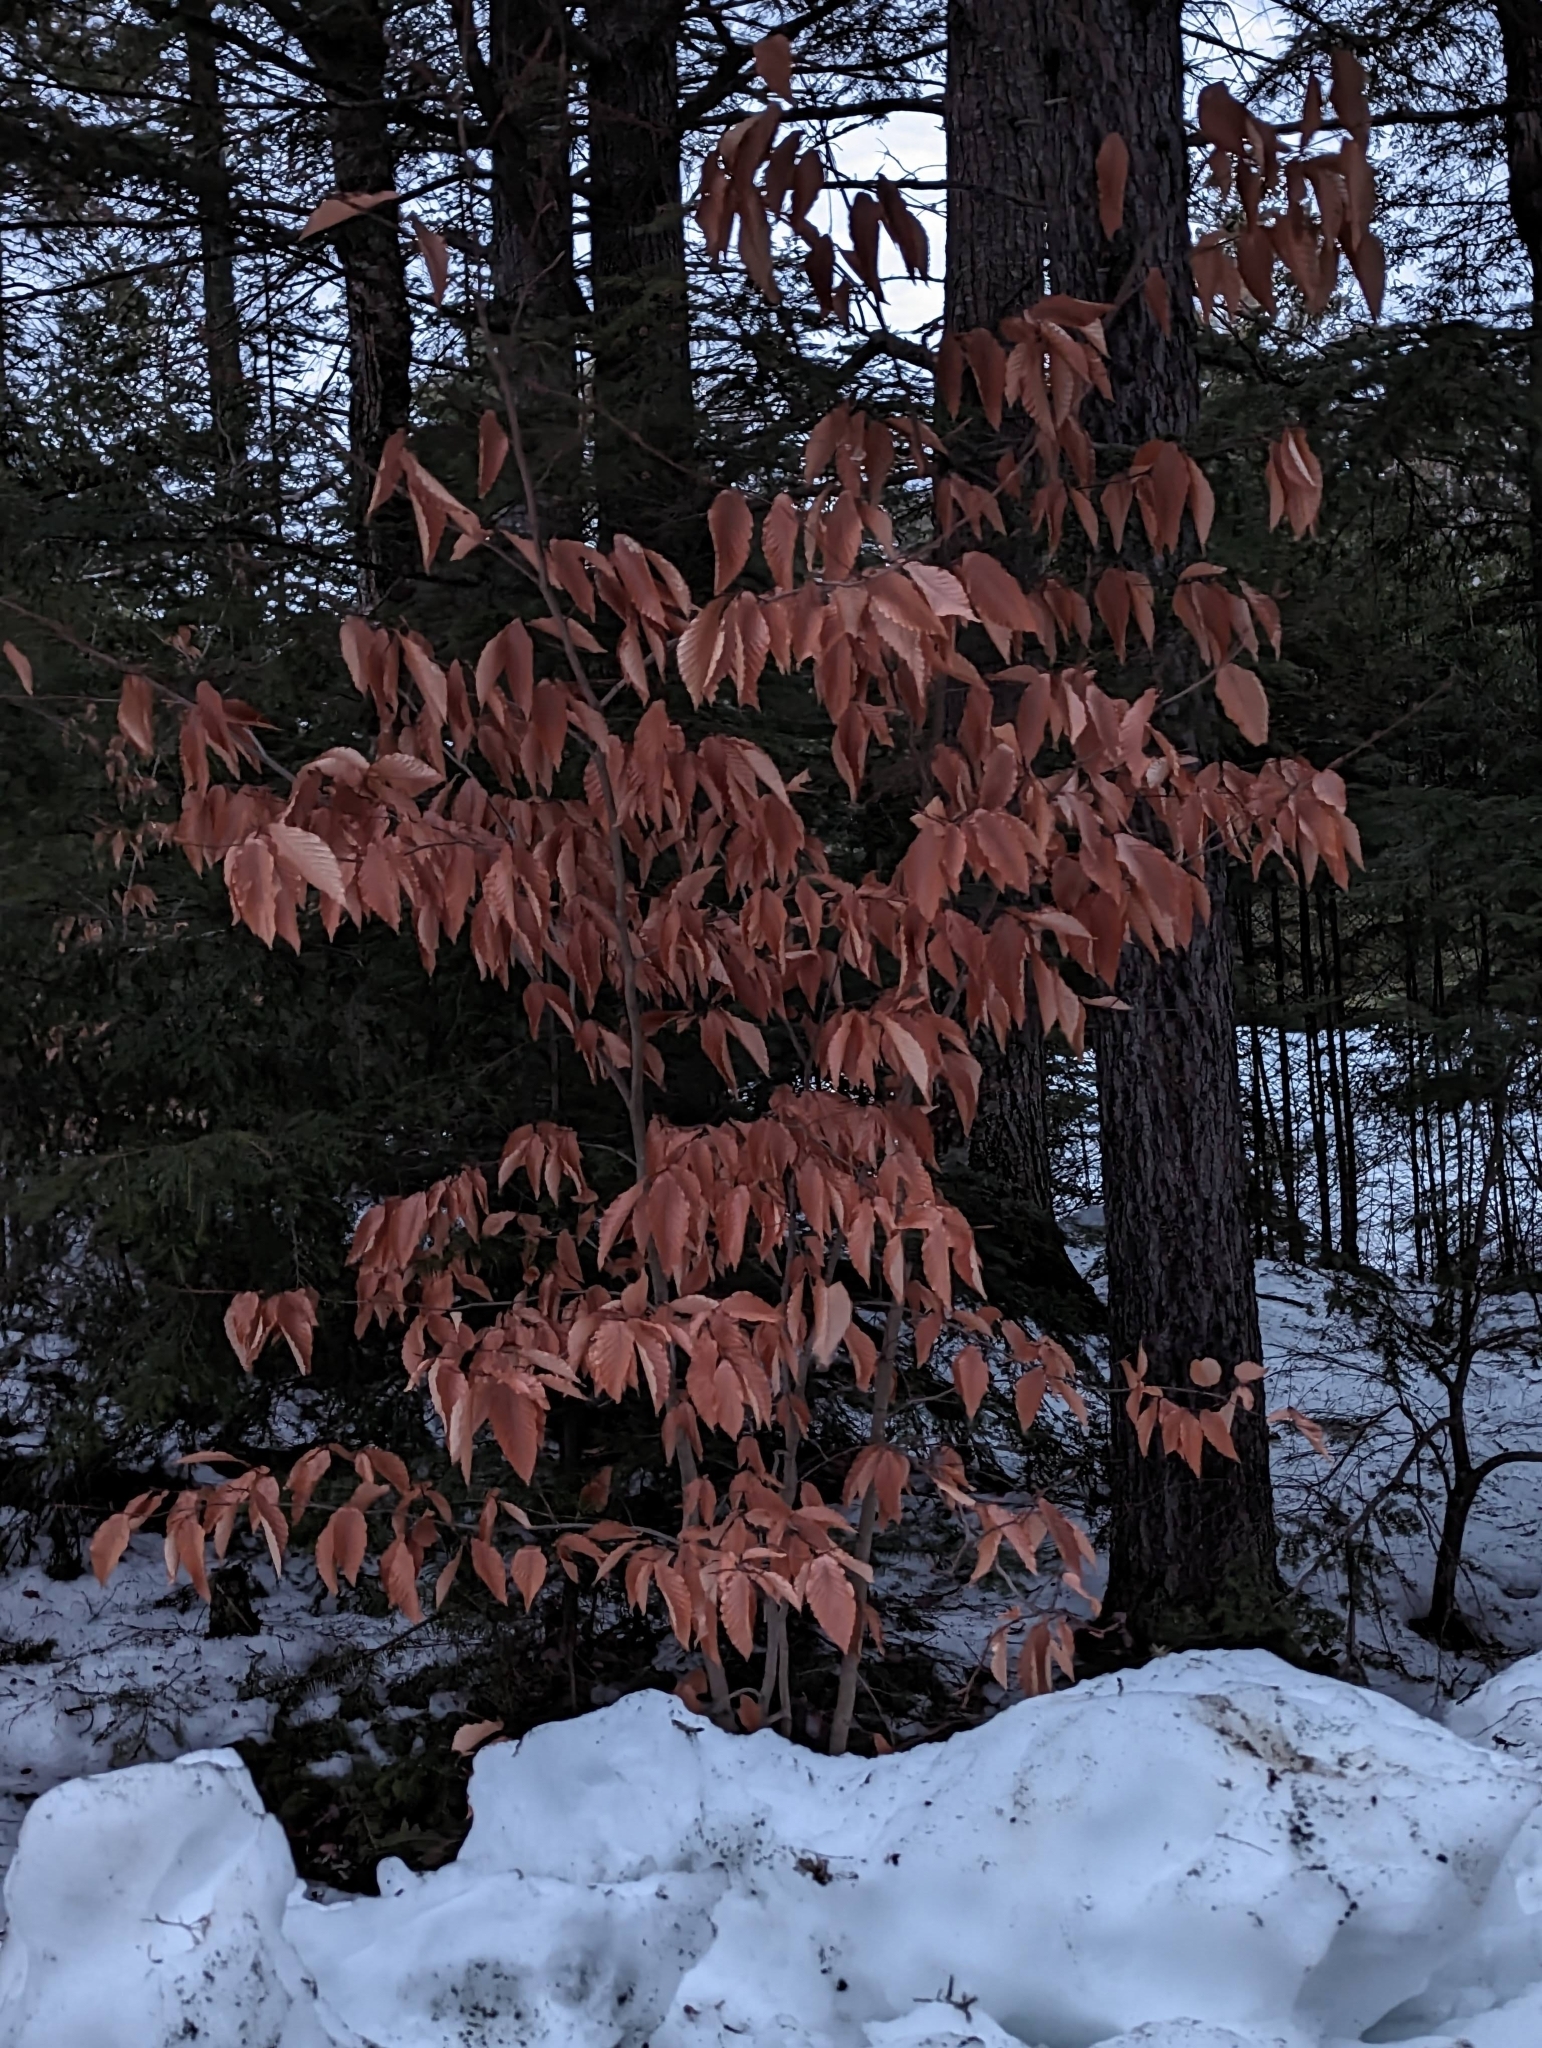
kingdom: Plantae
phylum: Tracheophyta
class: Magnoliopsida
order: Fagales
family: Fagaceae
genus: Fagus
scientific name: Fagus grandifolia
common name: American beech
